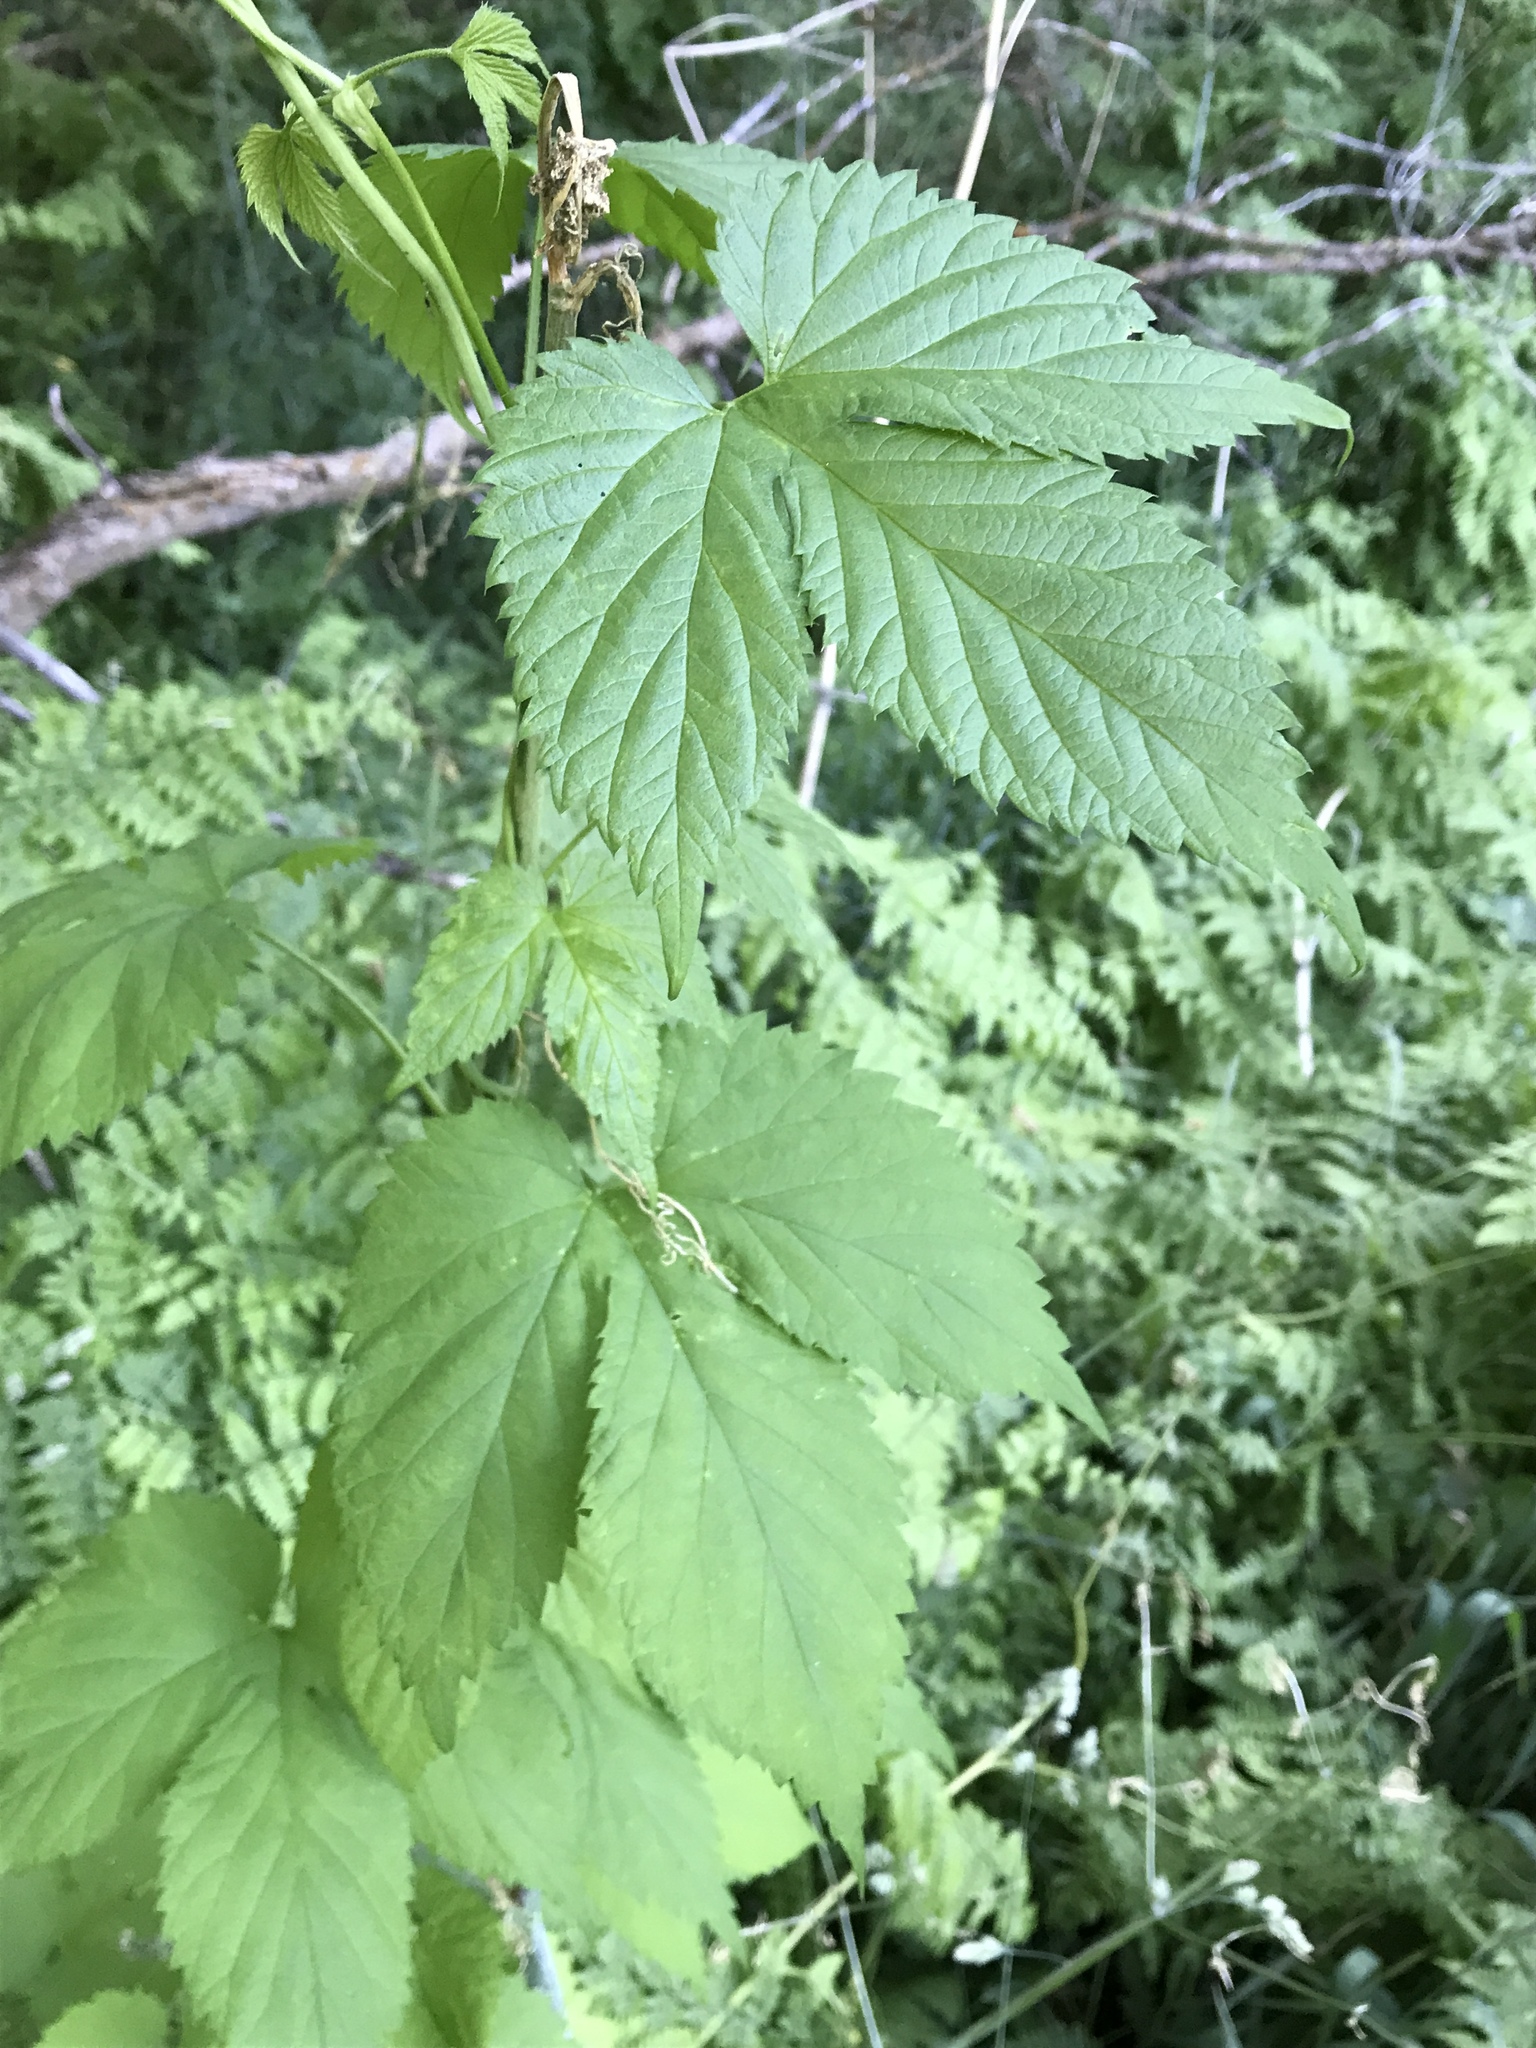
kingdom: Plantae
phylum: Tracheophyta
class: Magnoliopsida
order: Rosales
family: Cannabaceae
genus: Humulus
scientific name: Humulus lupulus
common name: Hop
